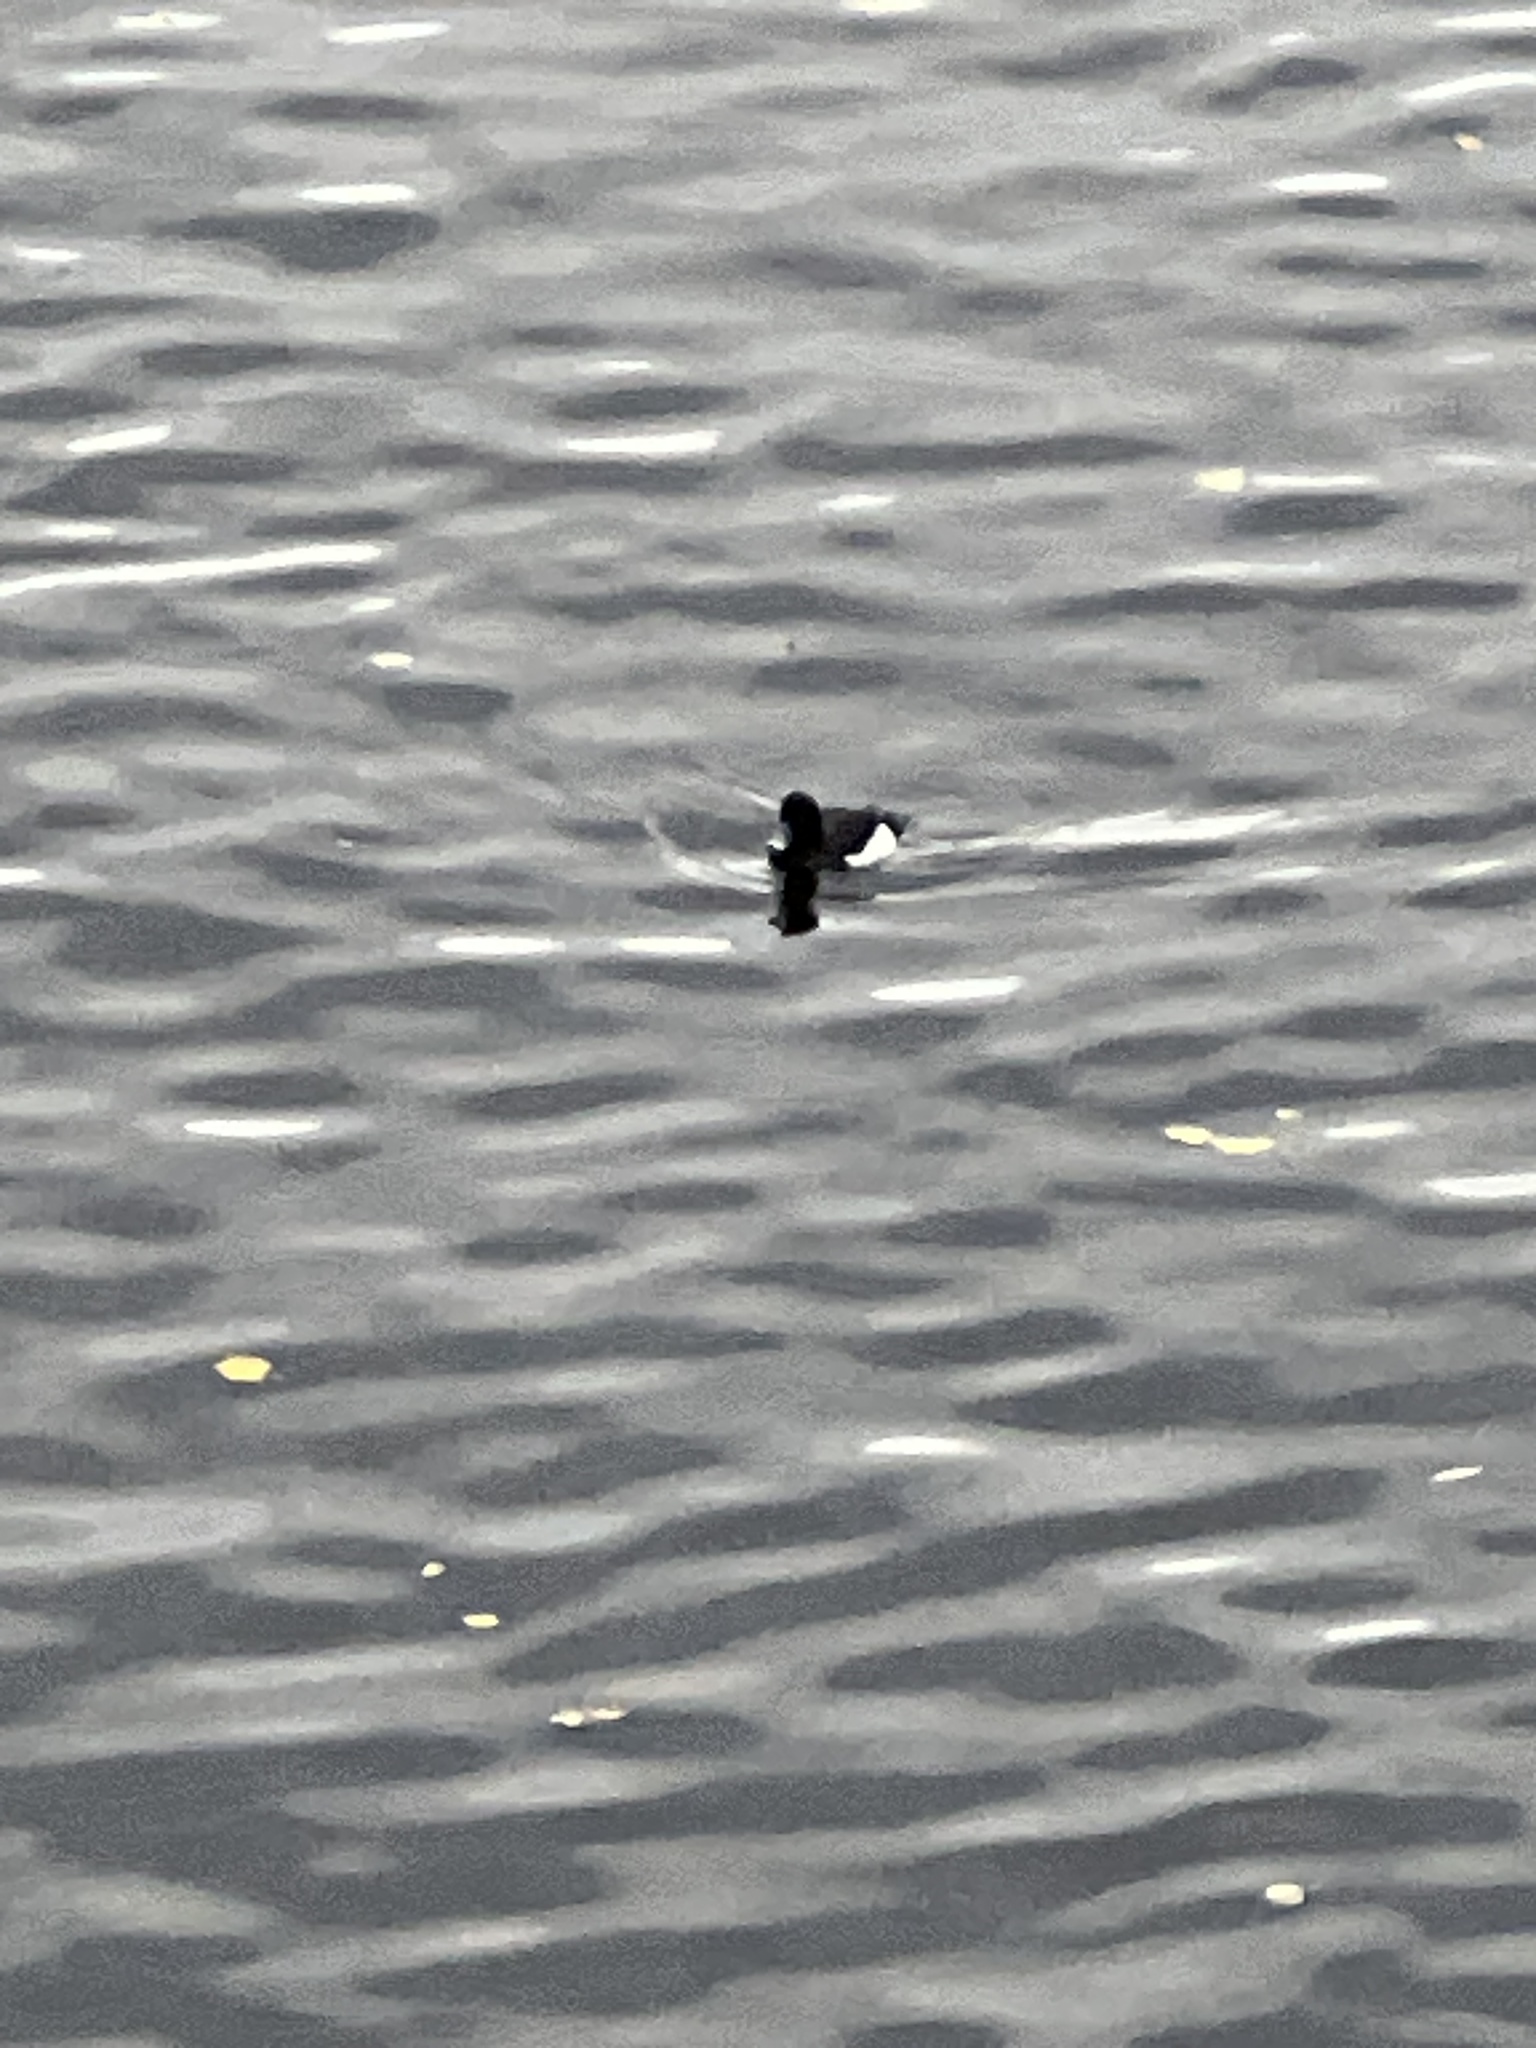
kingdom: Animalia
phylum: Chordata
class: Aves
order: Anseriformes
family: Anatidae
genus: Aythya
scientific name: Aythya fuligula
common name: Tufted duck
